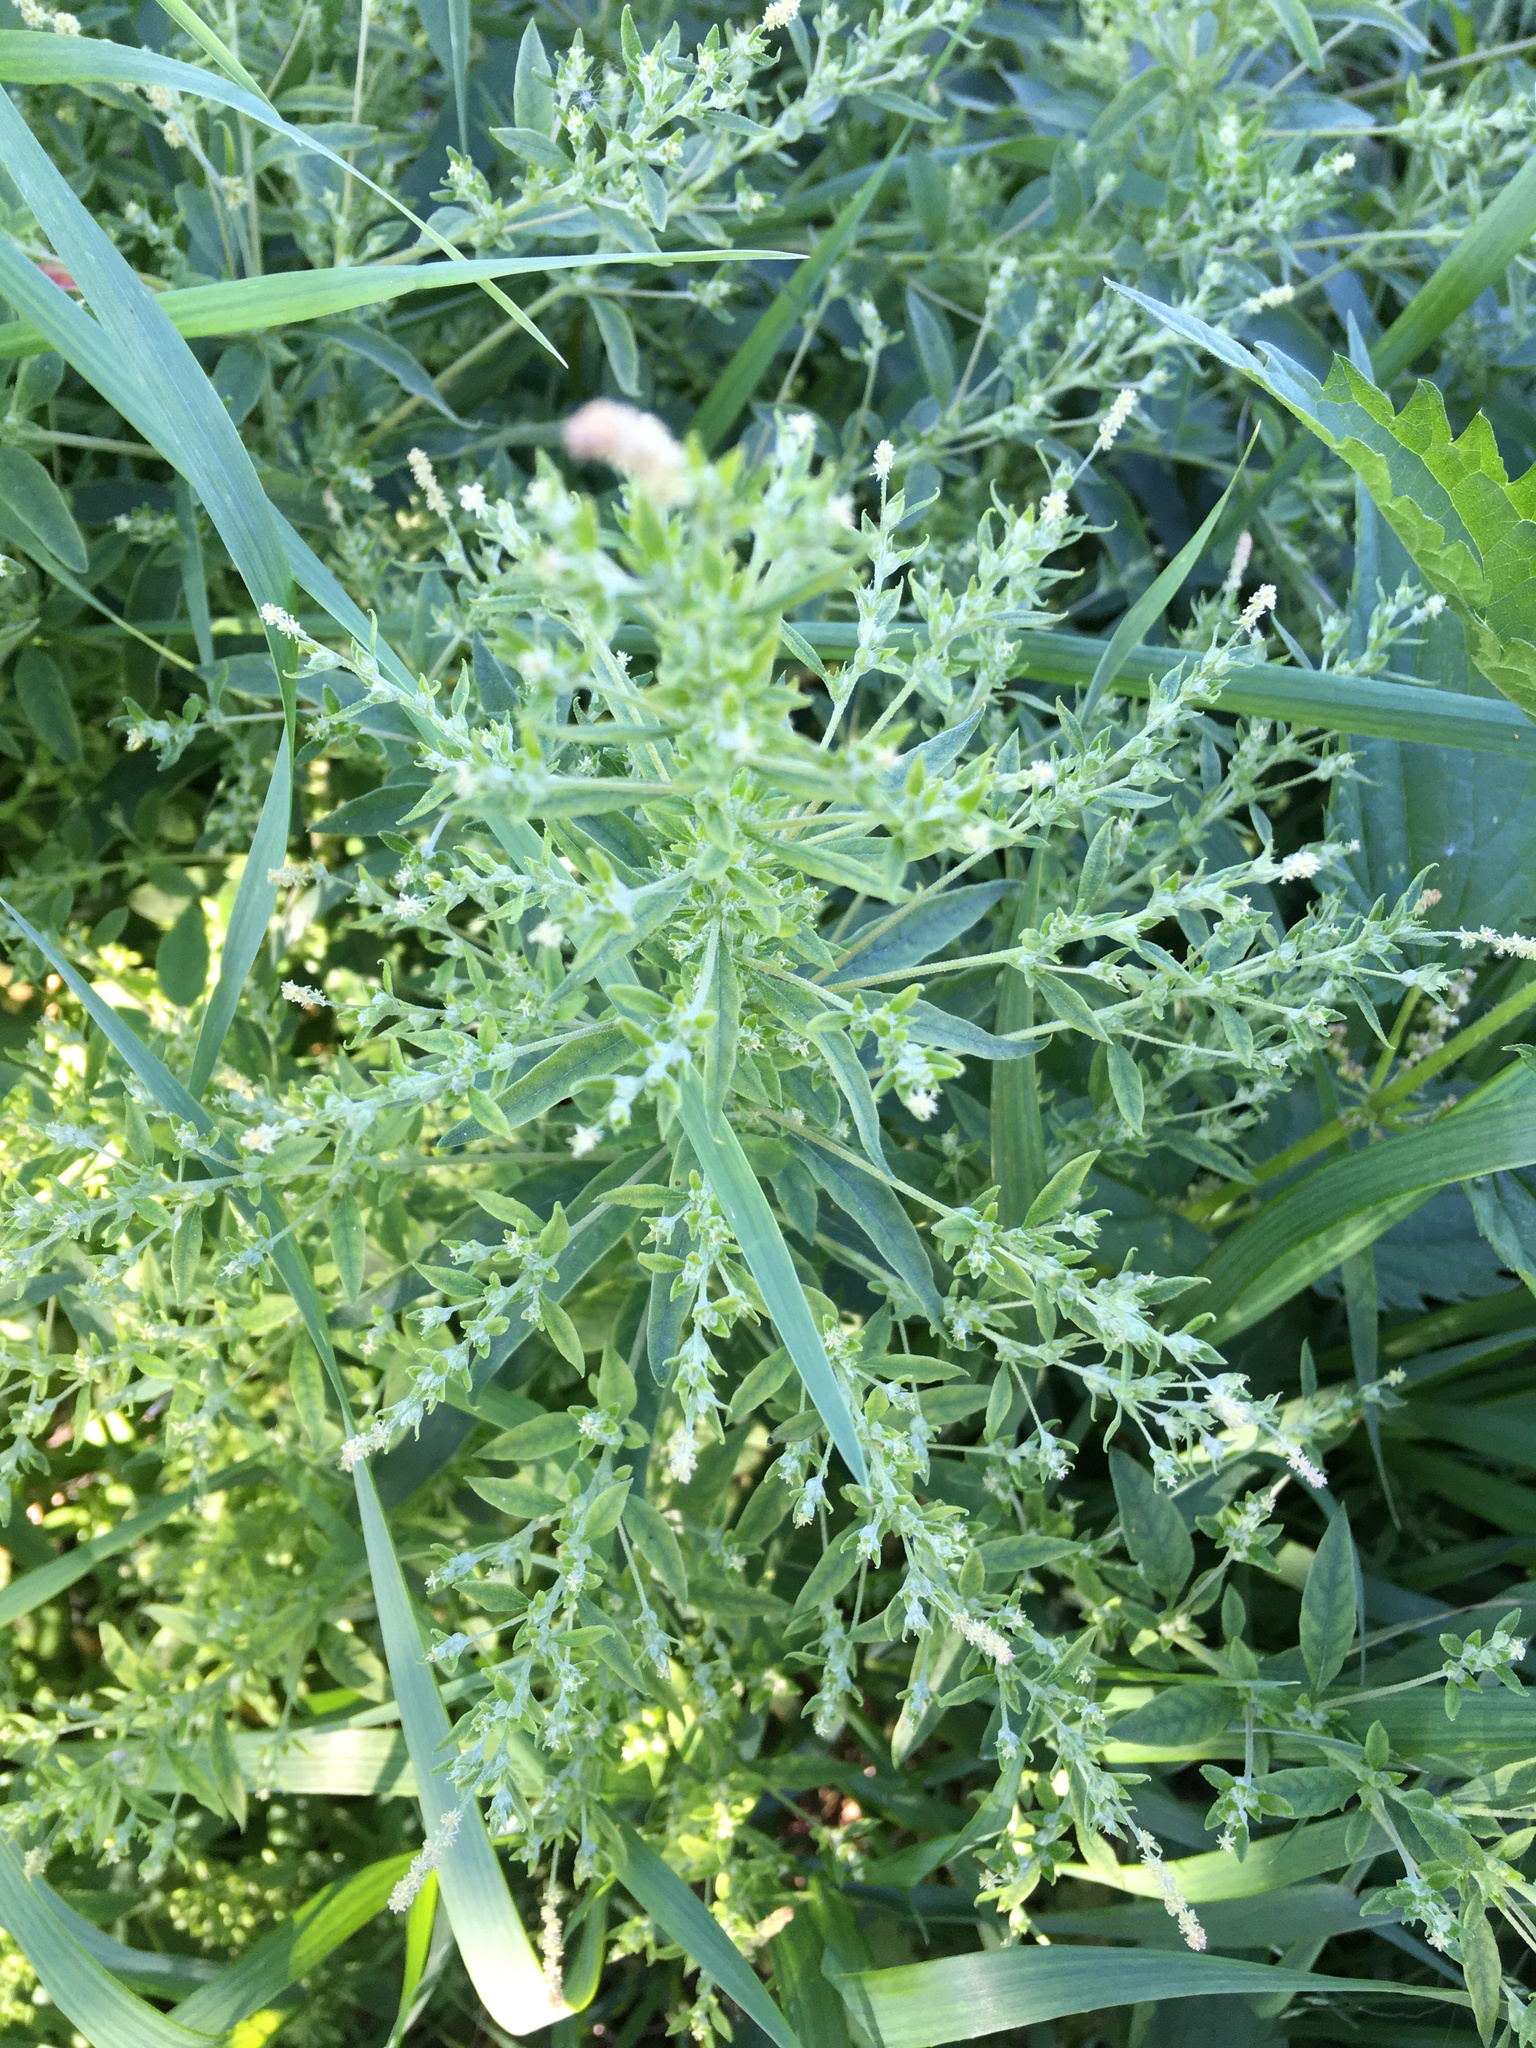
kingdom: Plantae
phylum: Tracheophyta
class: Magnoliopsida
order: Caryophyllales
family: Amaranthaceae
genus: Axyris
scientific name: Axyris amaranthoides
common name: Russian pigweed
